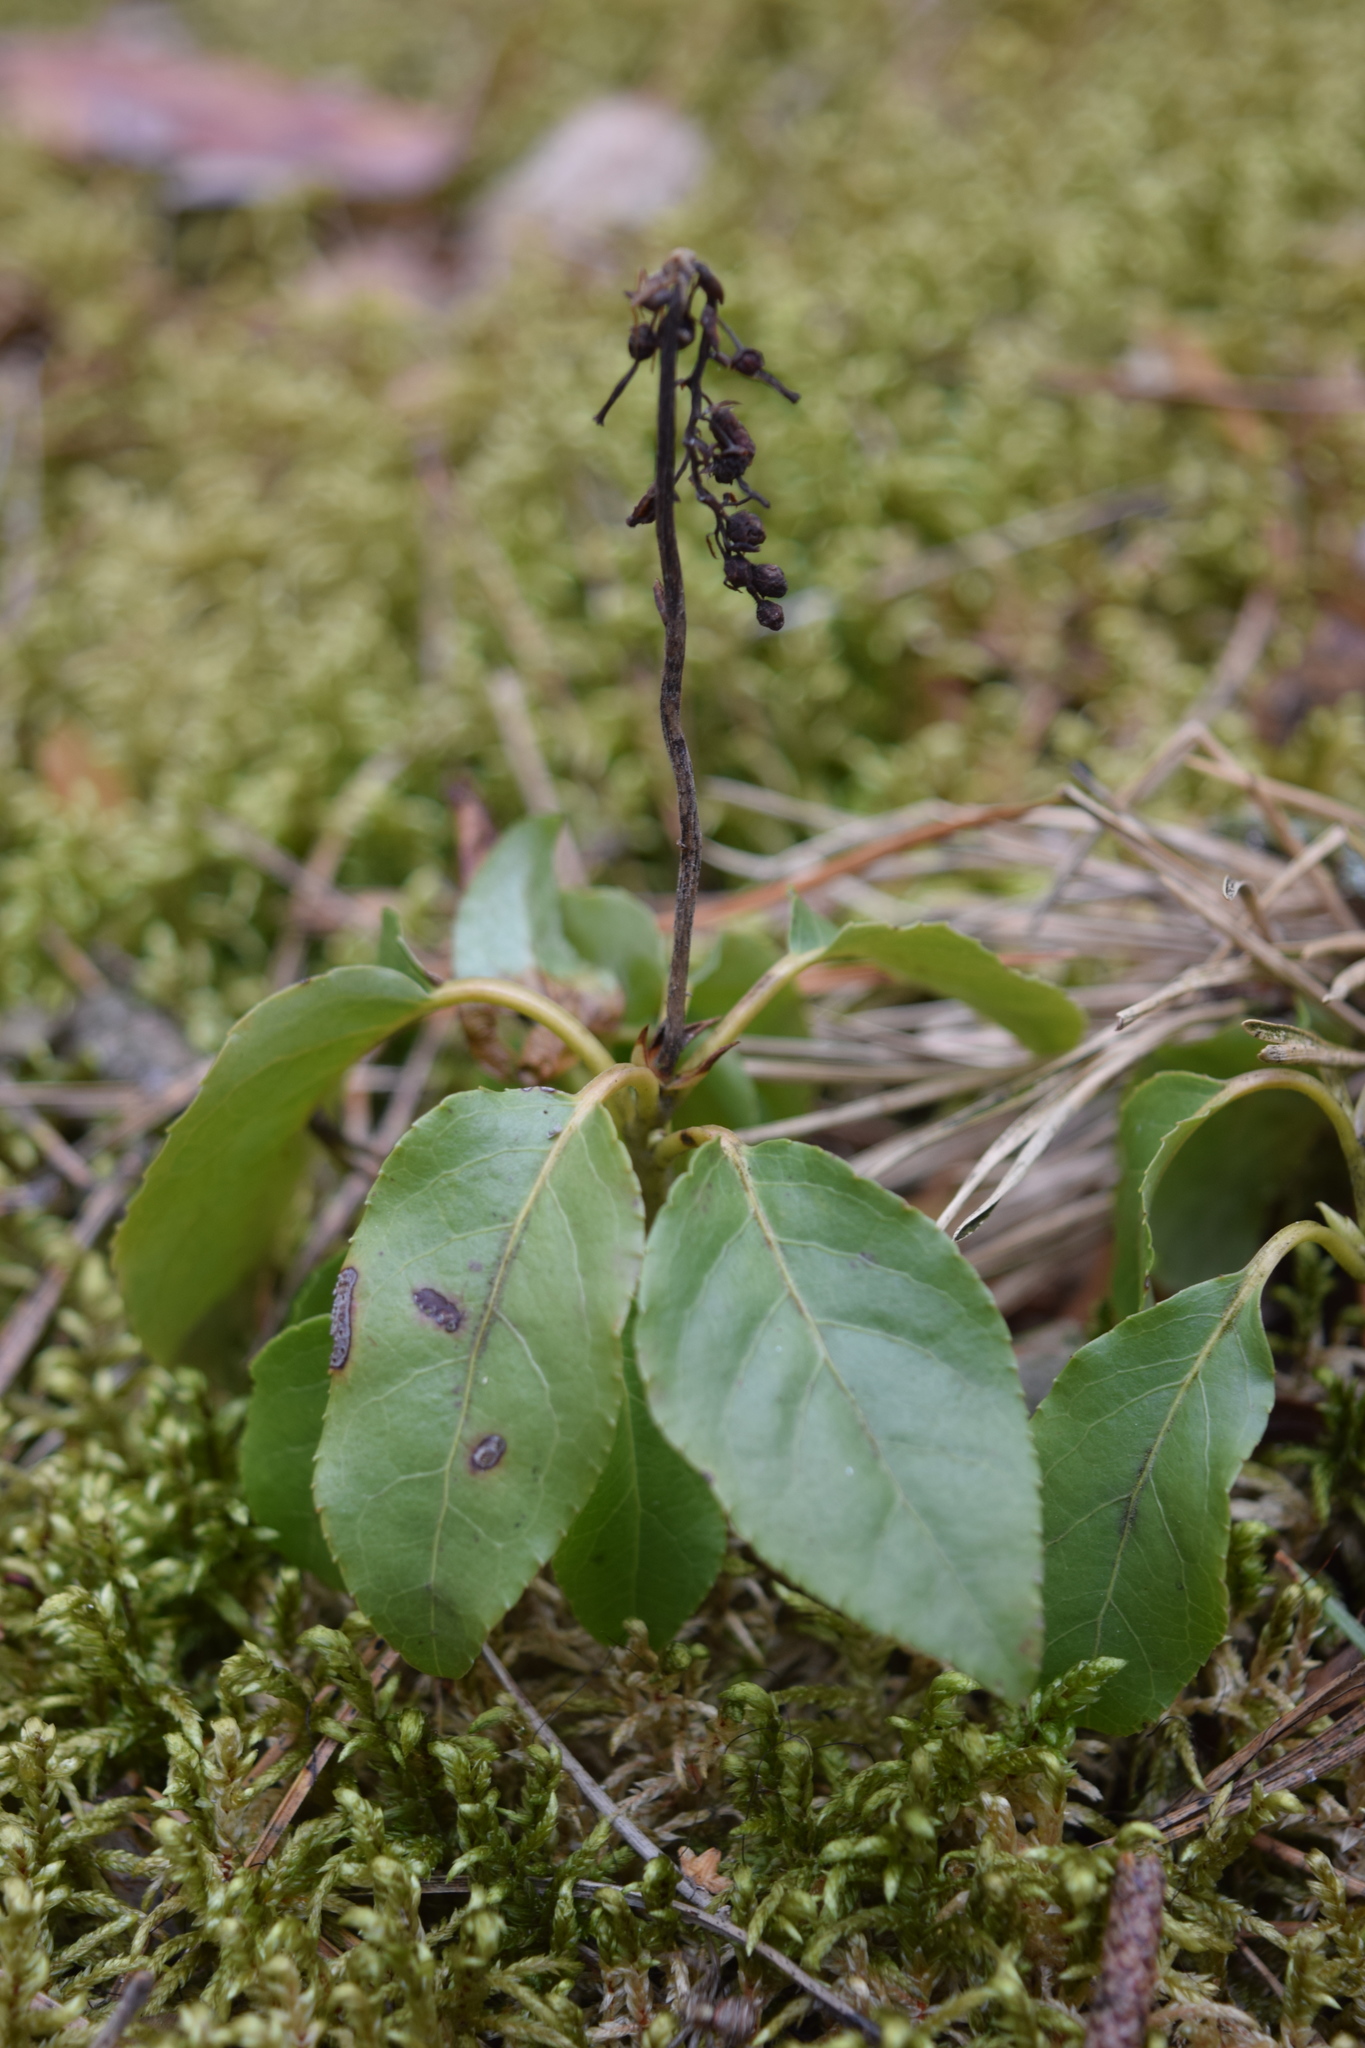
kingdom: Plantae
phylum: Tracheophyta
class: Magnoliopsida
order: Ericales
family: Ericaceae
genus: Orthilia
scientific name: Orthilia secunda
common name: One-sided orthilia
